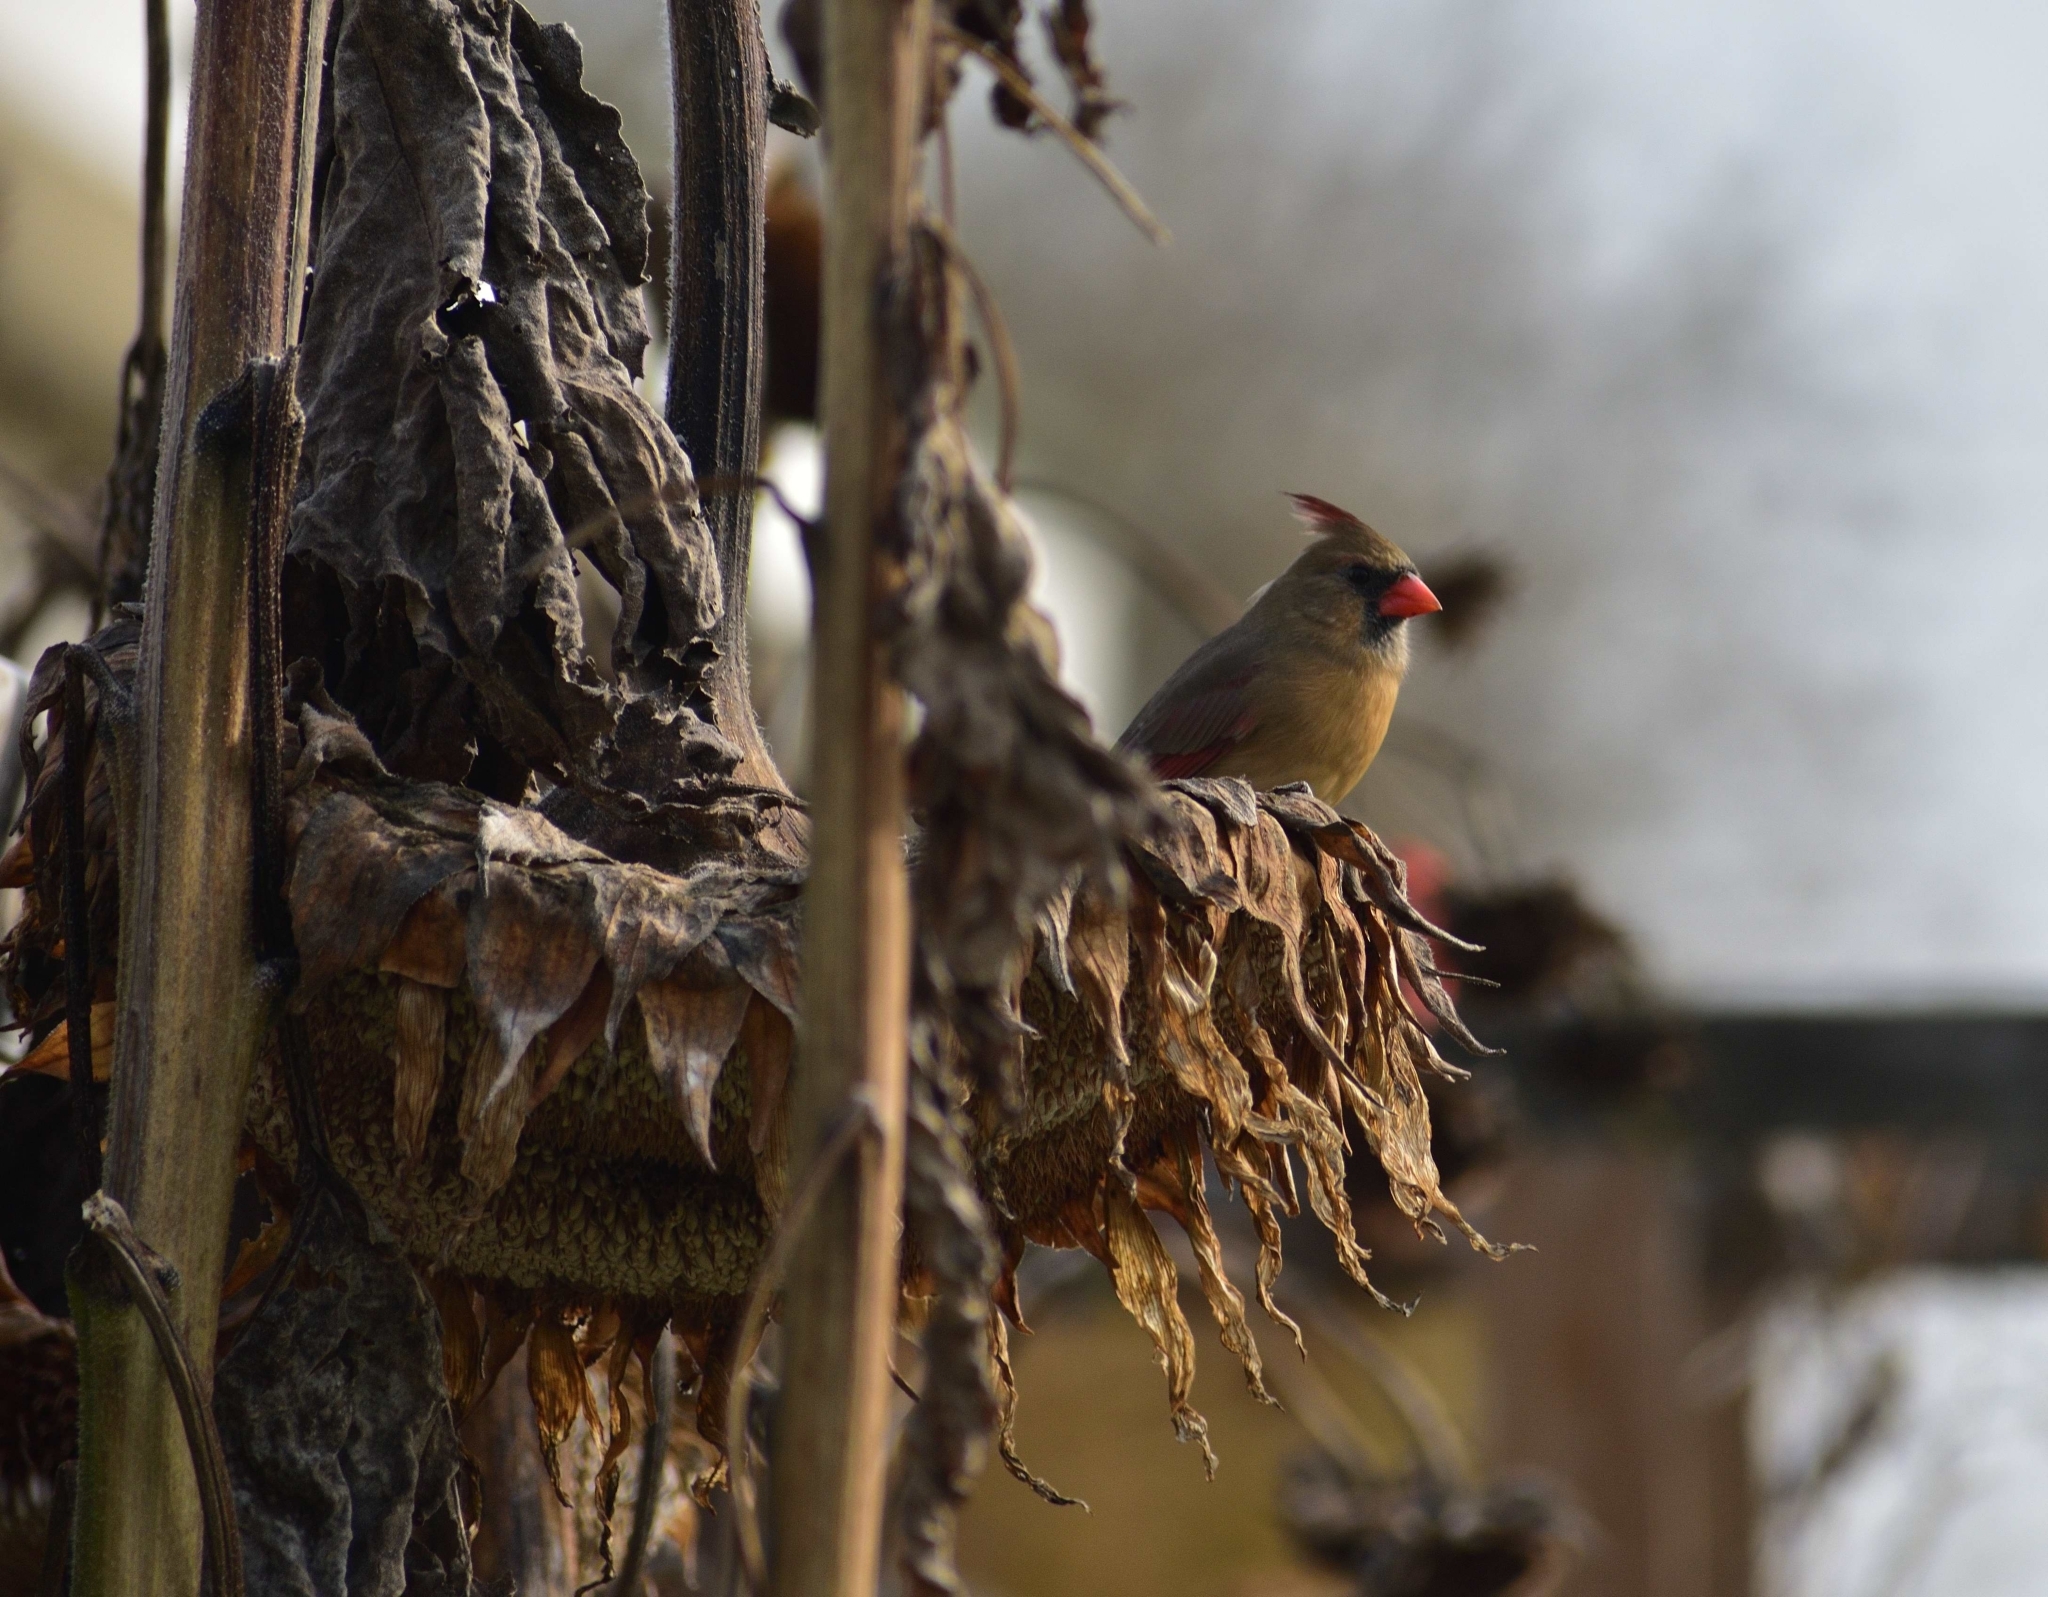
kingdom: Animalia
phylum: Chordata
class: Aves
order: Passeriformes
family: Cardinalidae
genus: Cardinalis
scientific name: Cardinalis cardinalis
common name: Northern cardinal
